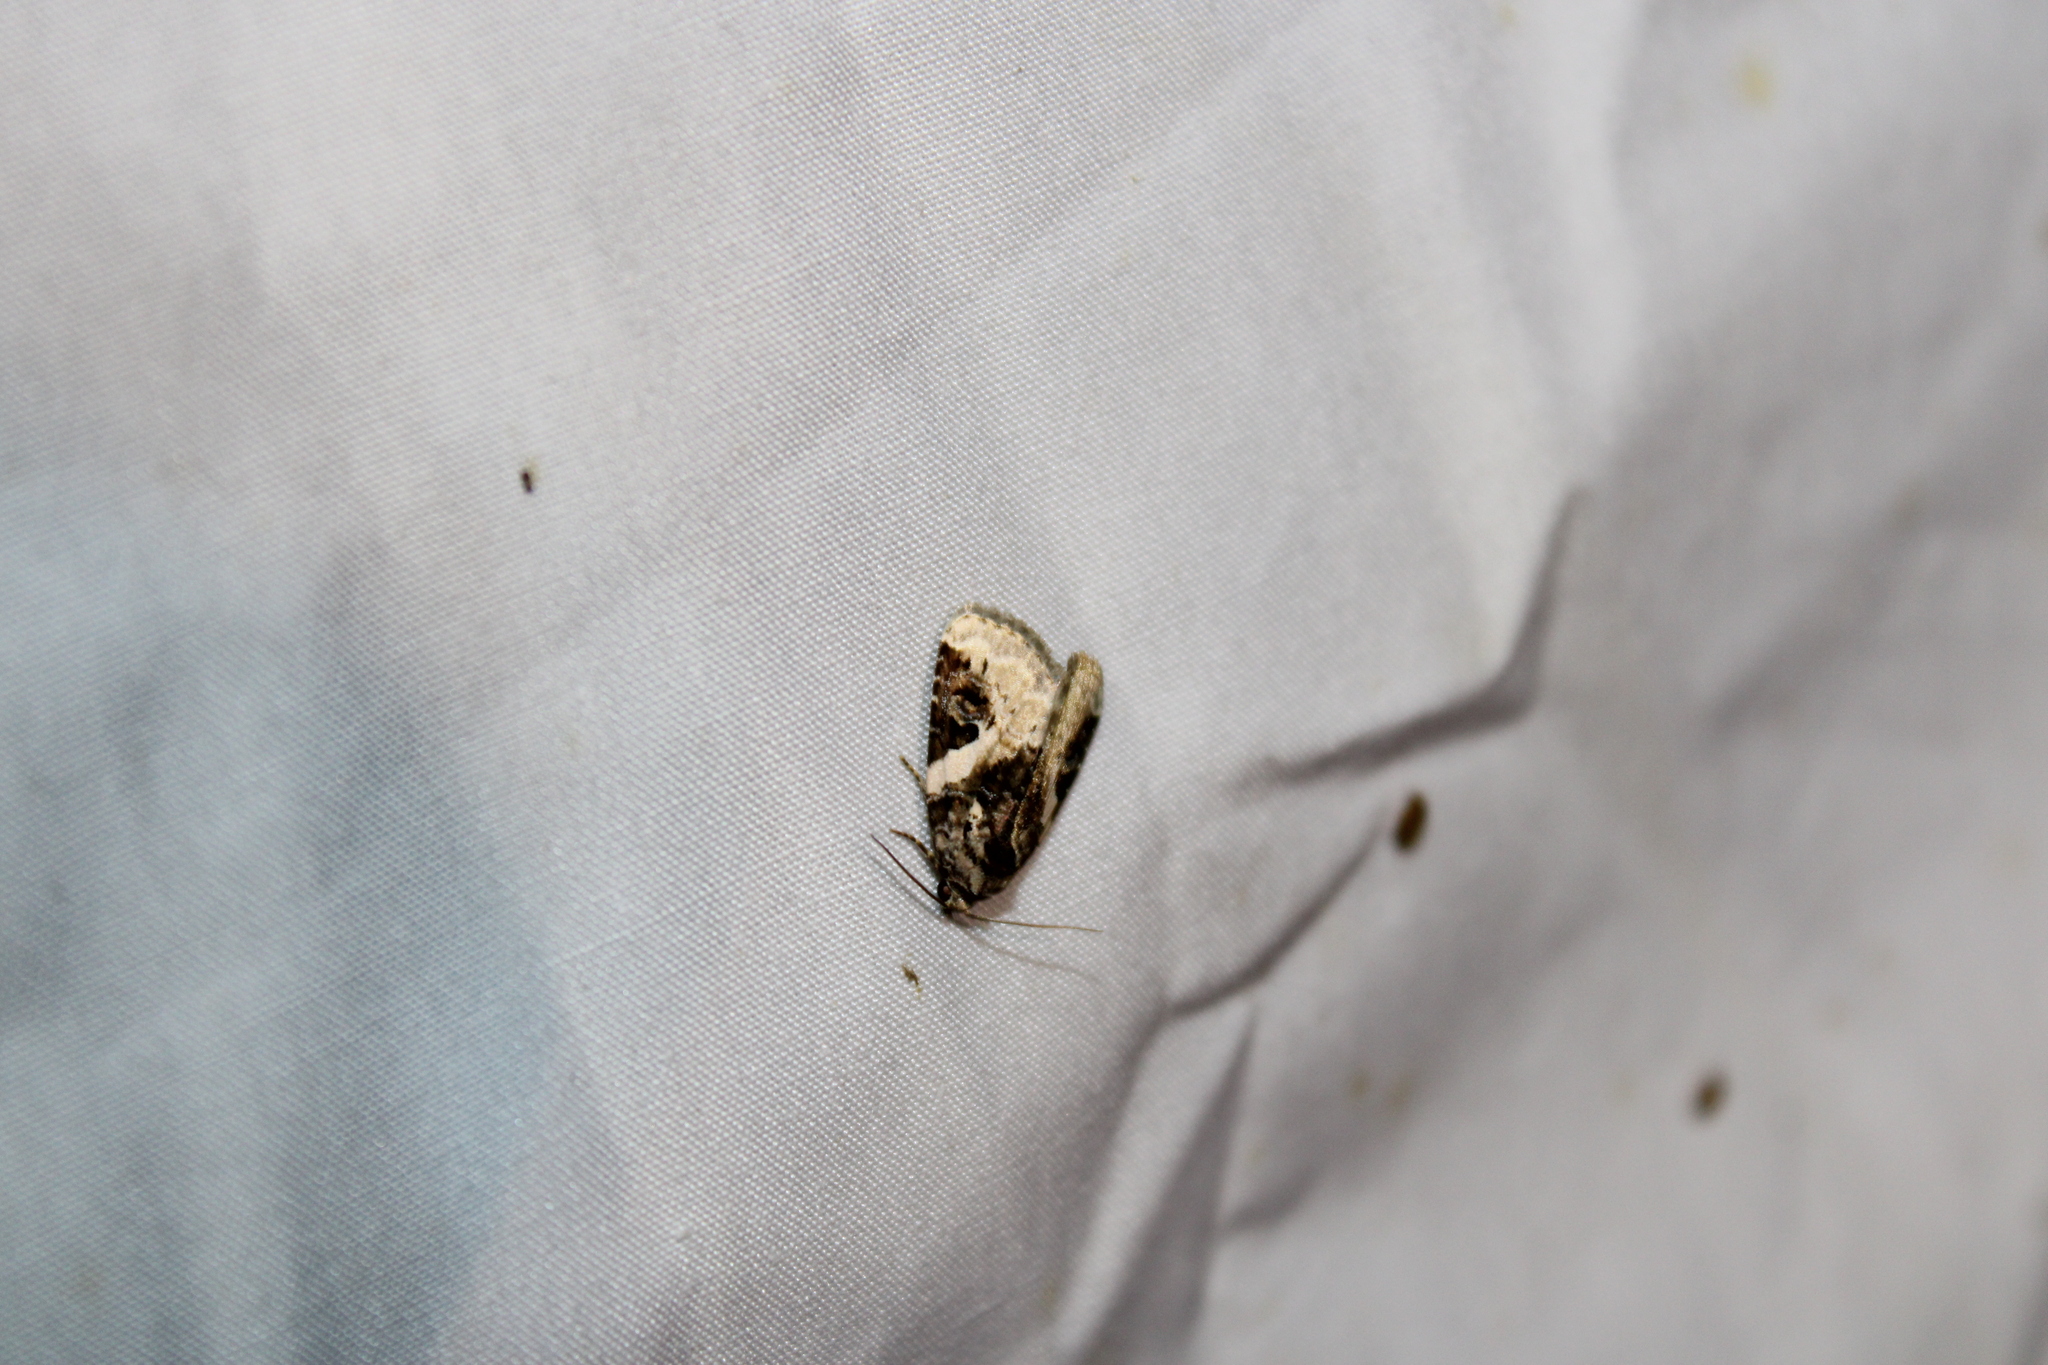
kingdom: Animalia
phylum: Arthropoda
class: Insecta
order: Lepidoptera
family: Noctuidae
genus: Pseudeustrotia
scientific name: Pseudeustrotia carneola
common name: Pink-barred lithacodia moth
